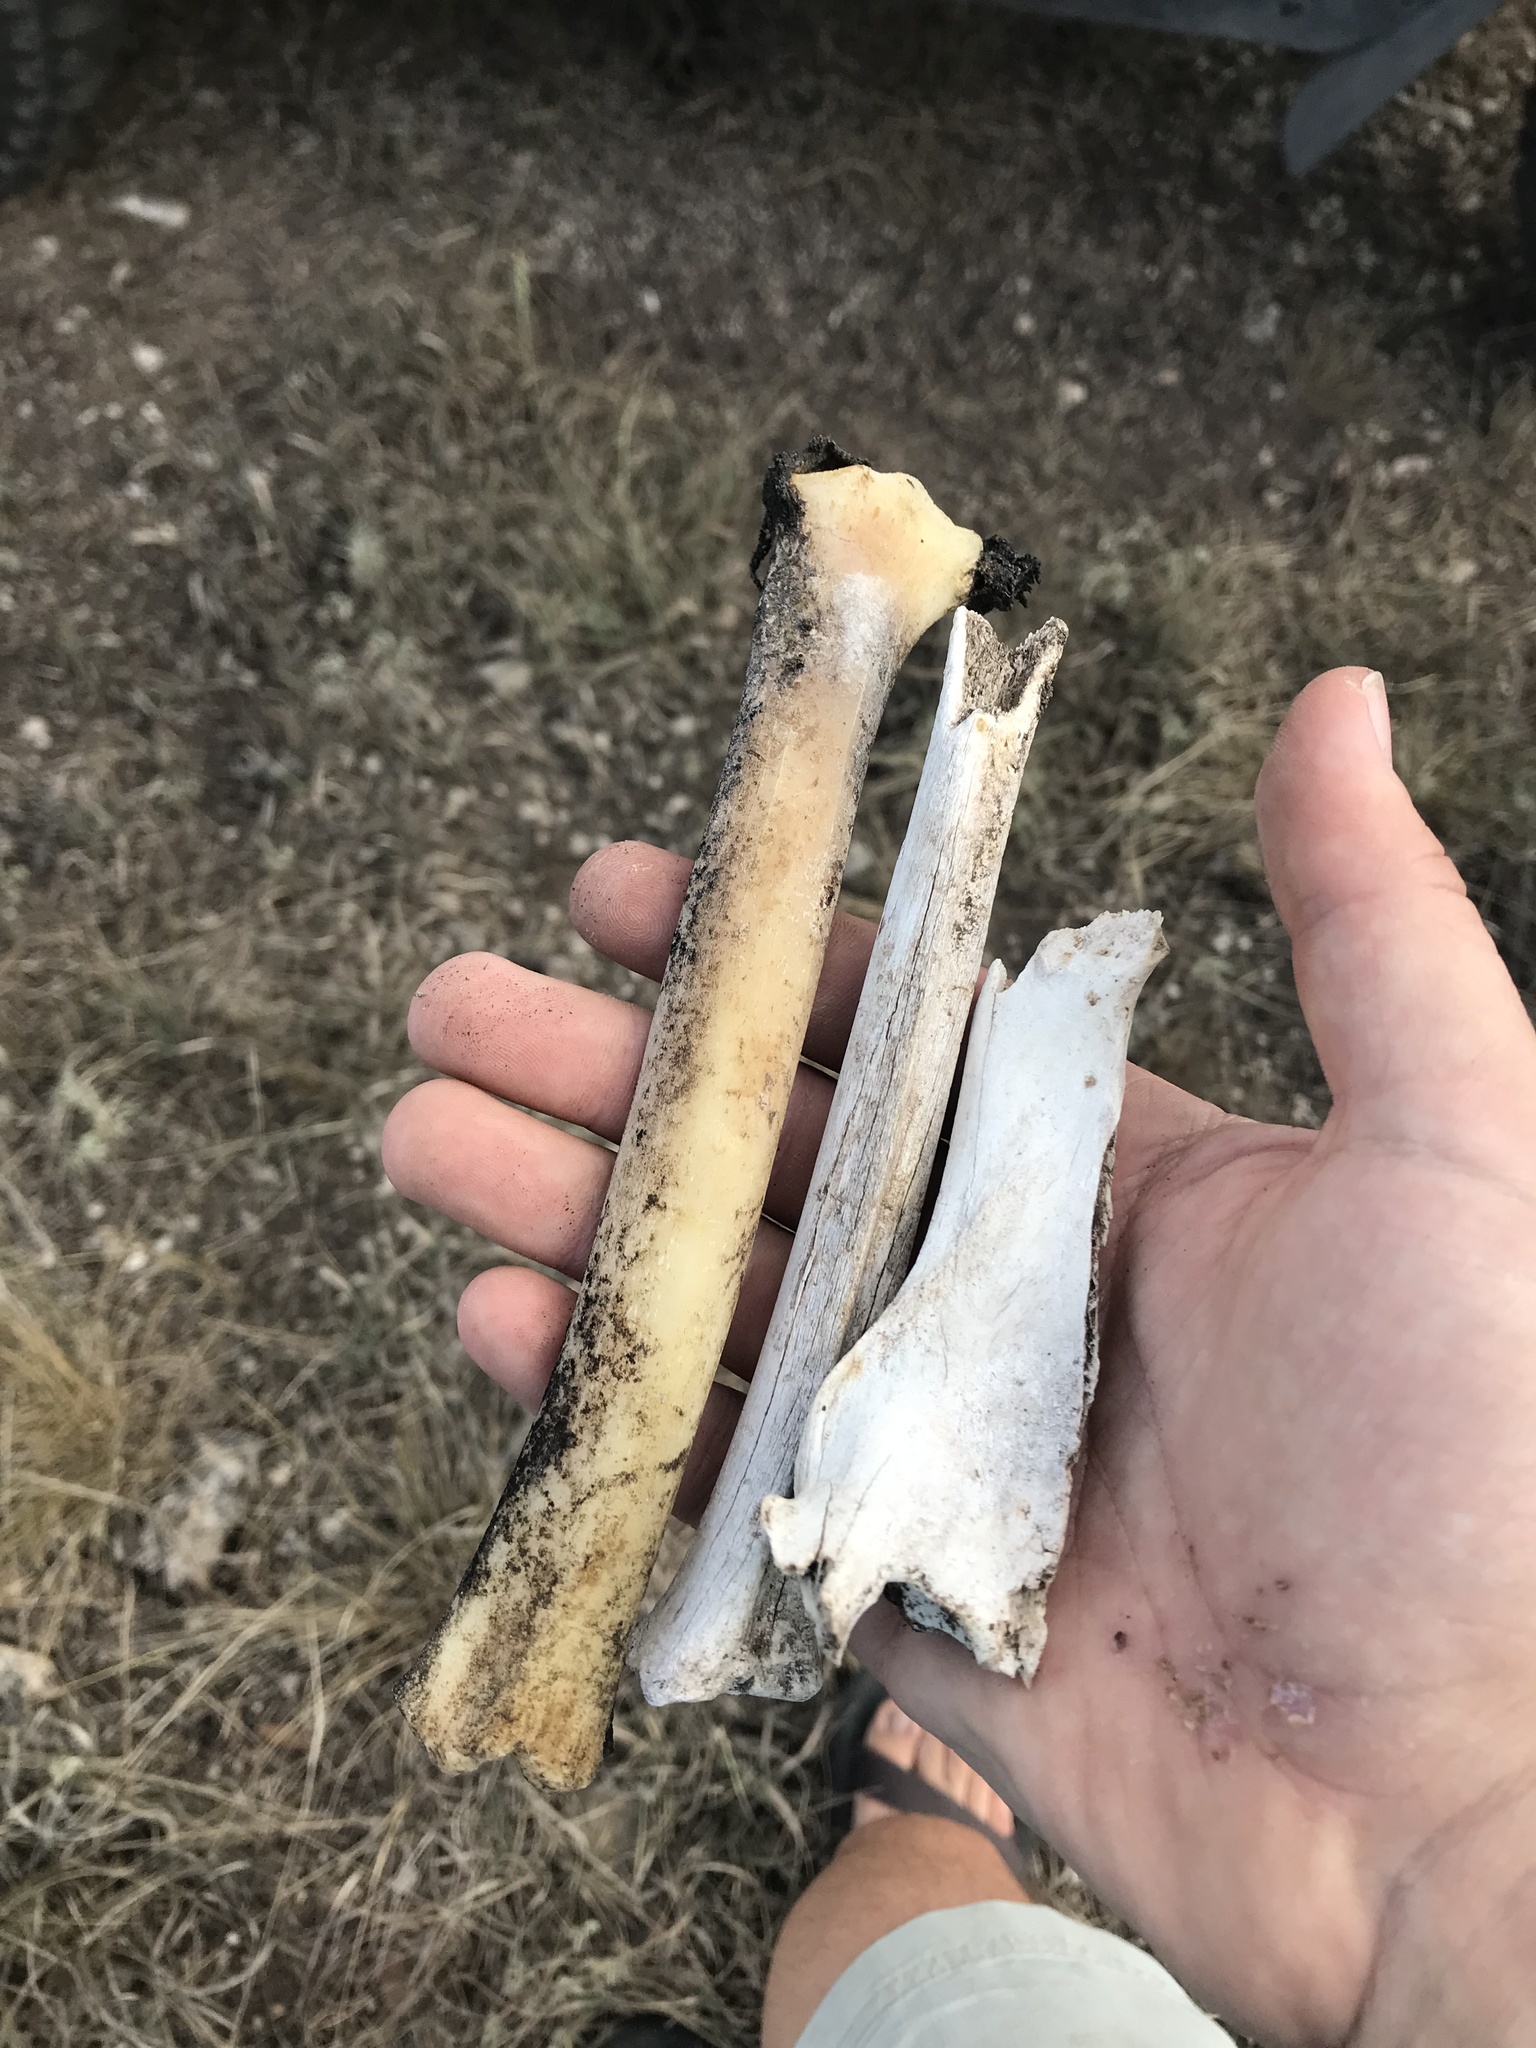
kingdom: Animalia
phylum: Chordata
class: Mammalia
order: Artiodactyla
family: Cervidae
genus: Odocoileus
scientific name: Odocoileus virginianus
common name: White-tailed deer
